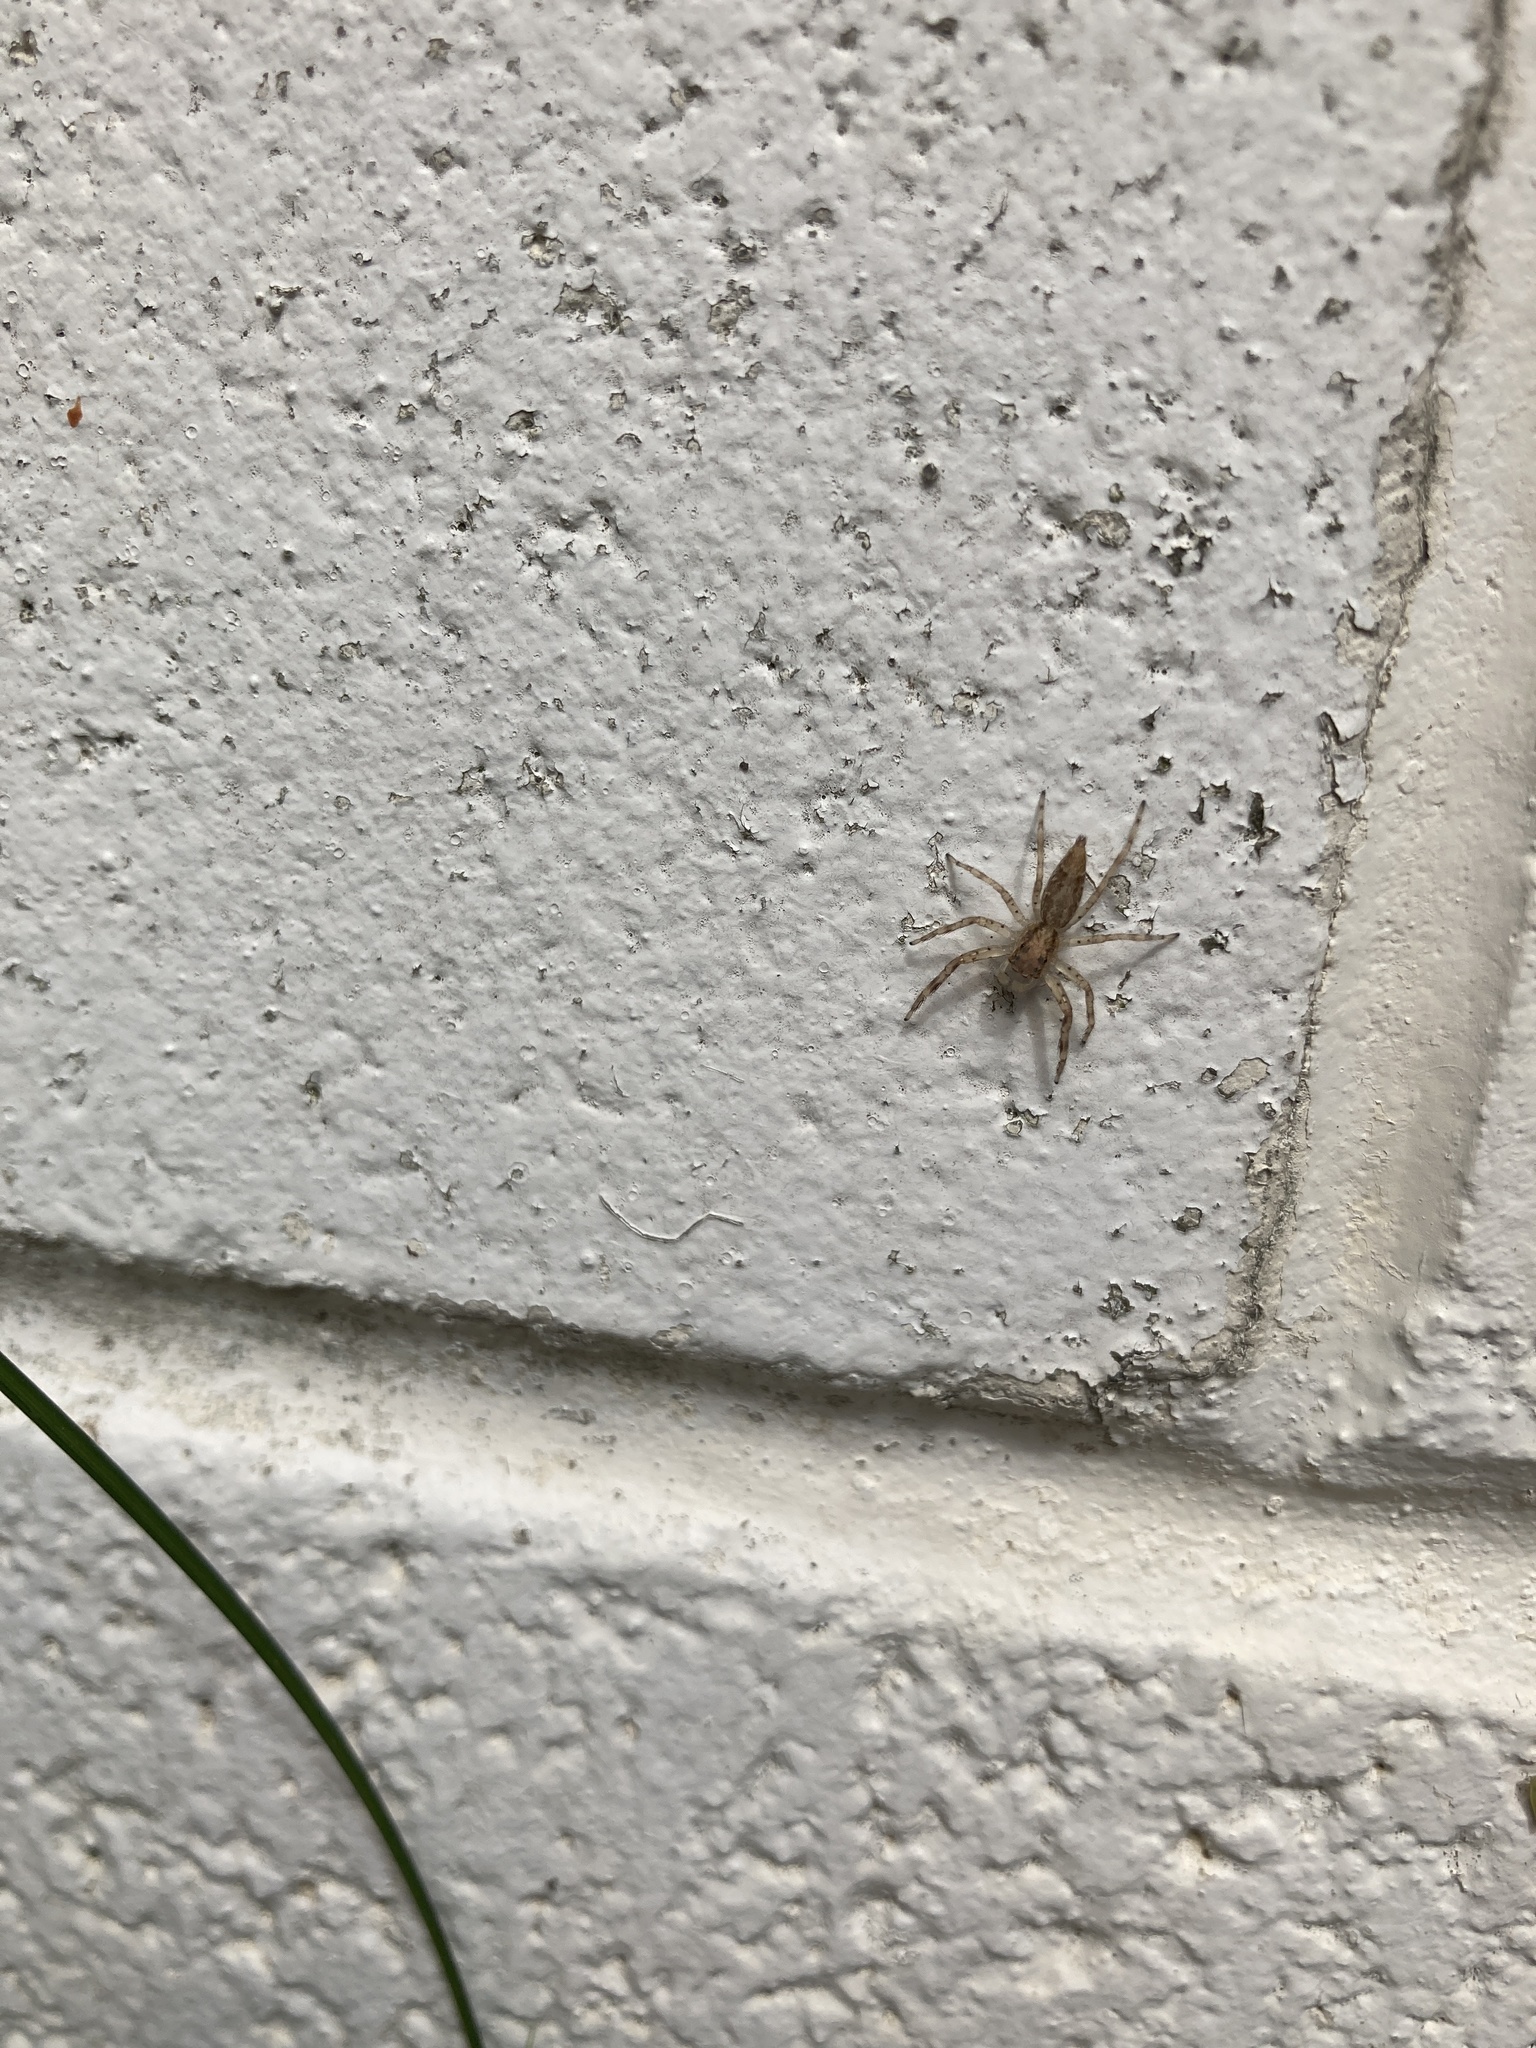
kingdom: Animalia
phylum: Arthropoda
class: Arachnida
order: Araneae
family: Salticidae
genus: Helpis
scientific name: Helpis minitabunda
